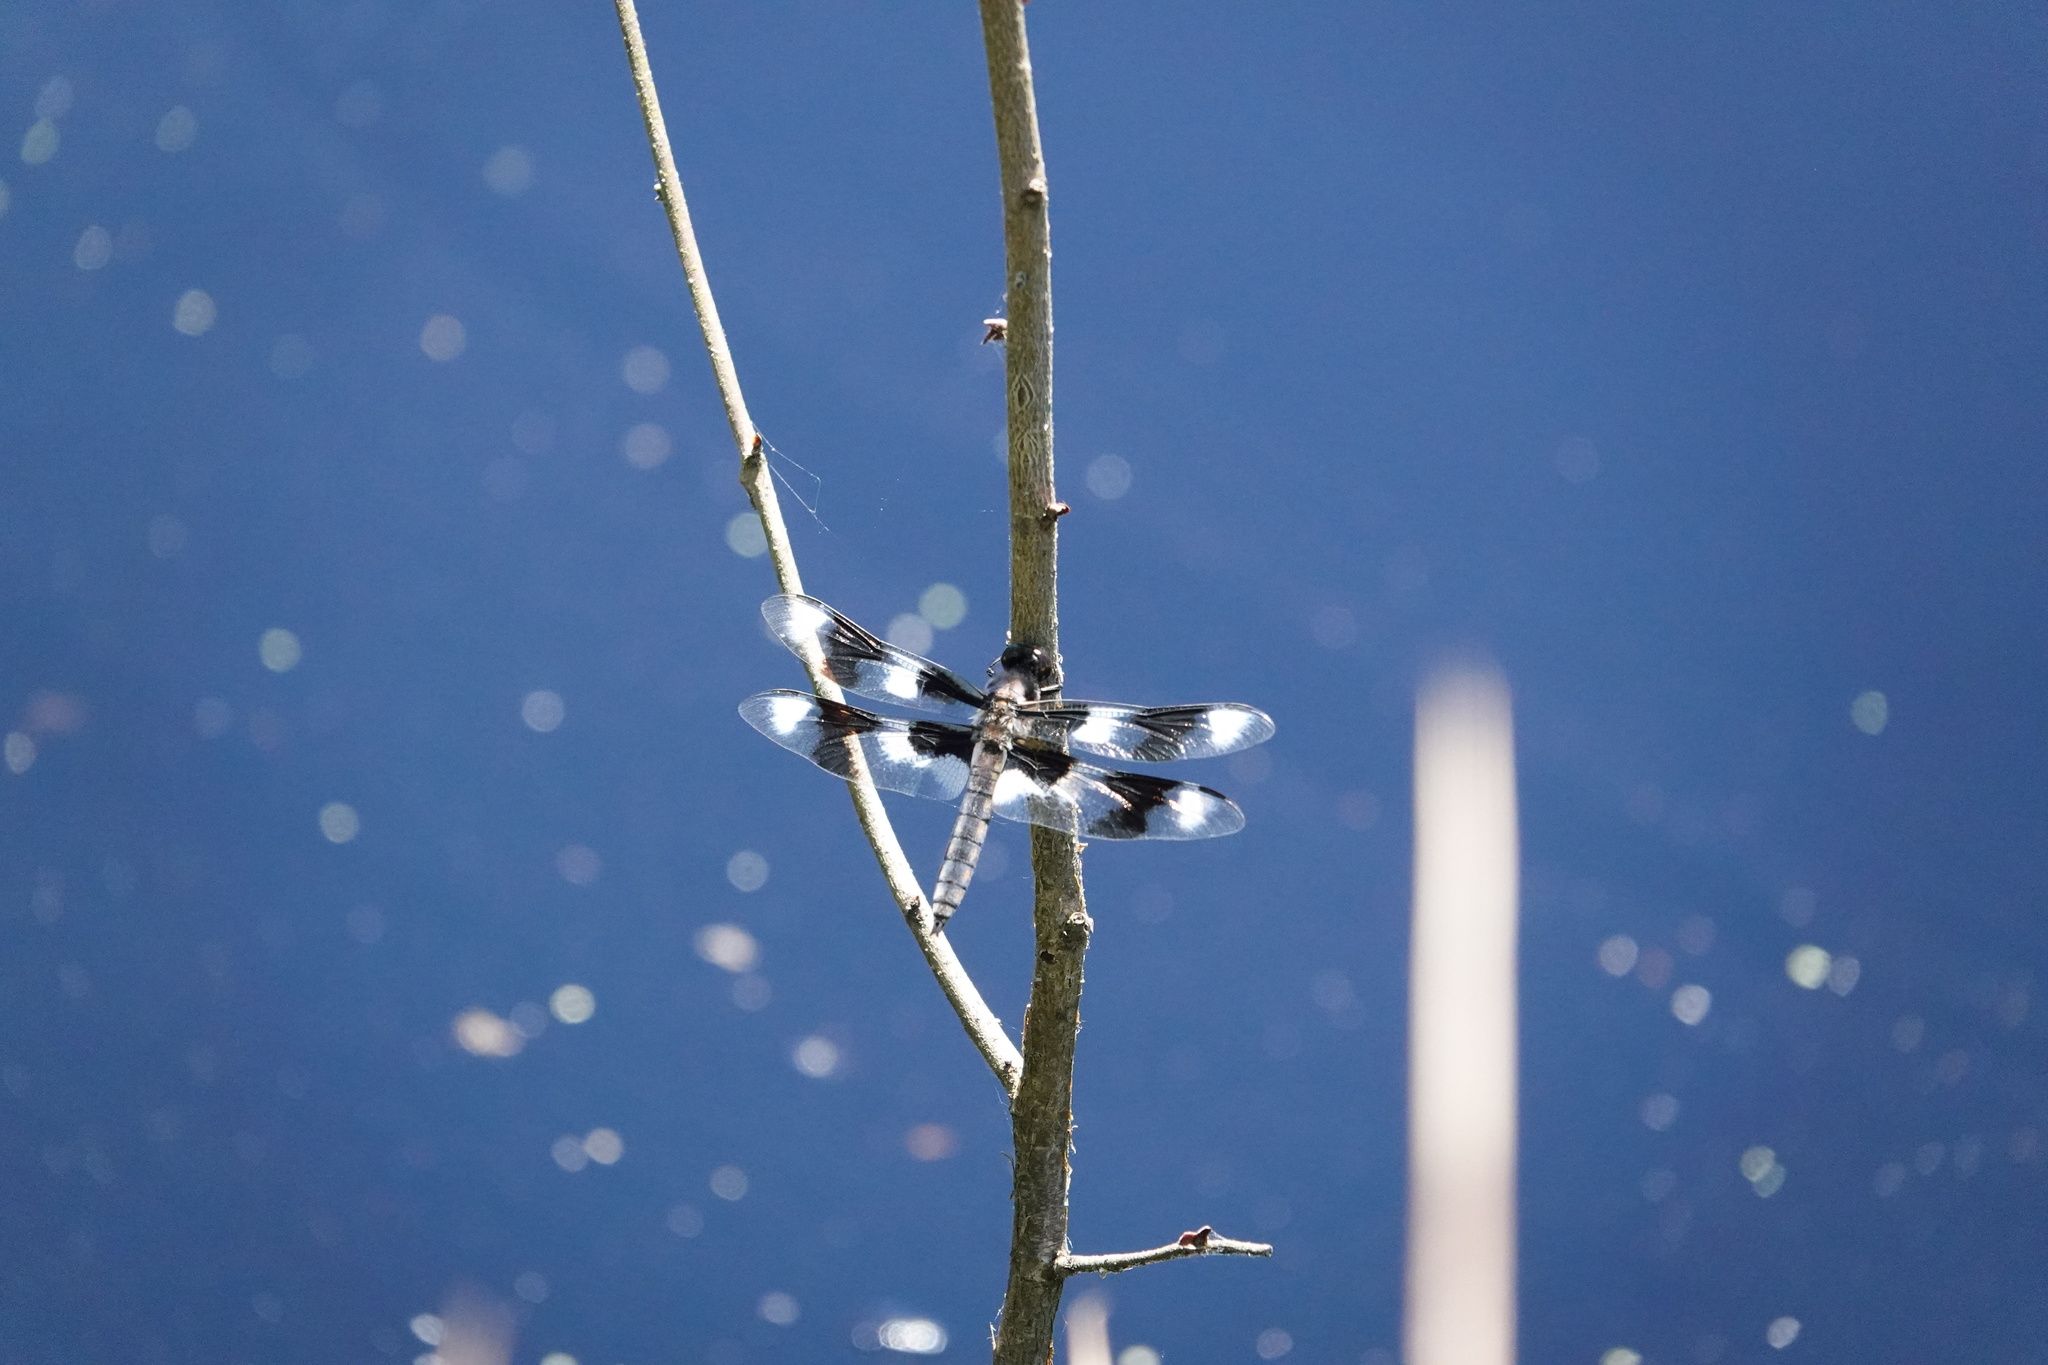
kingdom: Animalia
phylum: Arthropoda
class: Insecta
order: Odonata
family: Libellulidae
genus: Libellula
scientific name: Libellula forensis
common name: Eight-spotted skimmer
